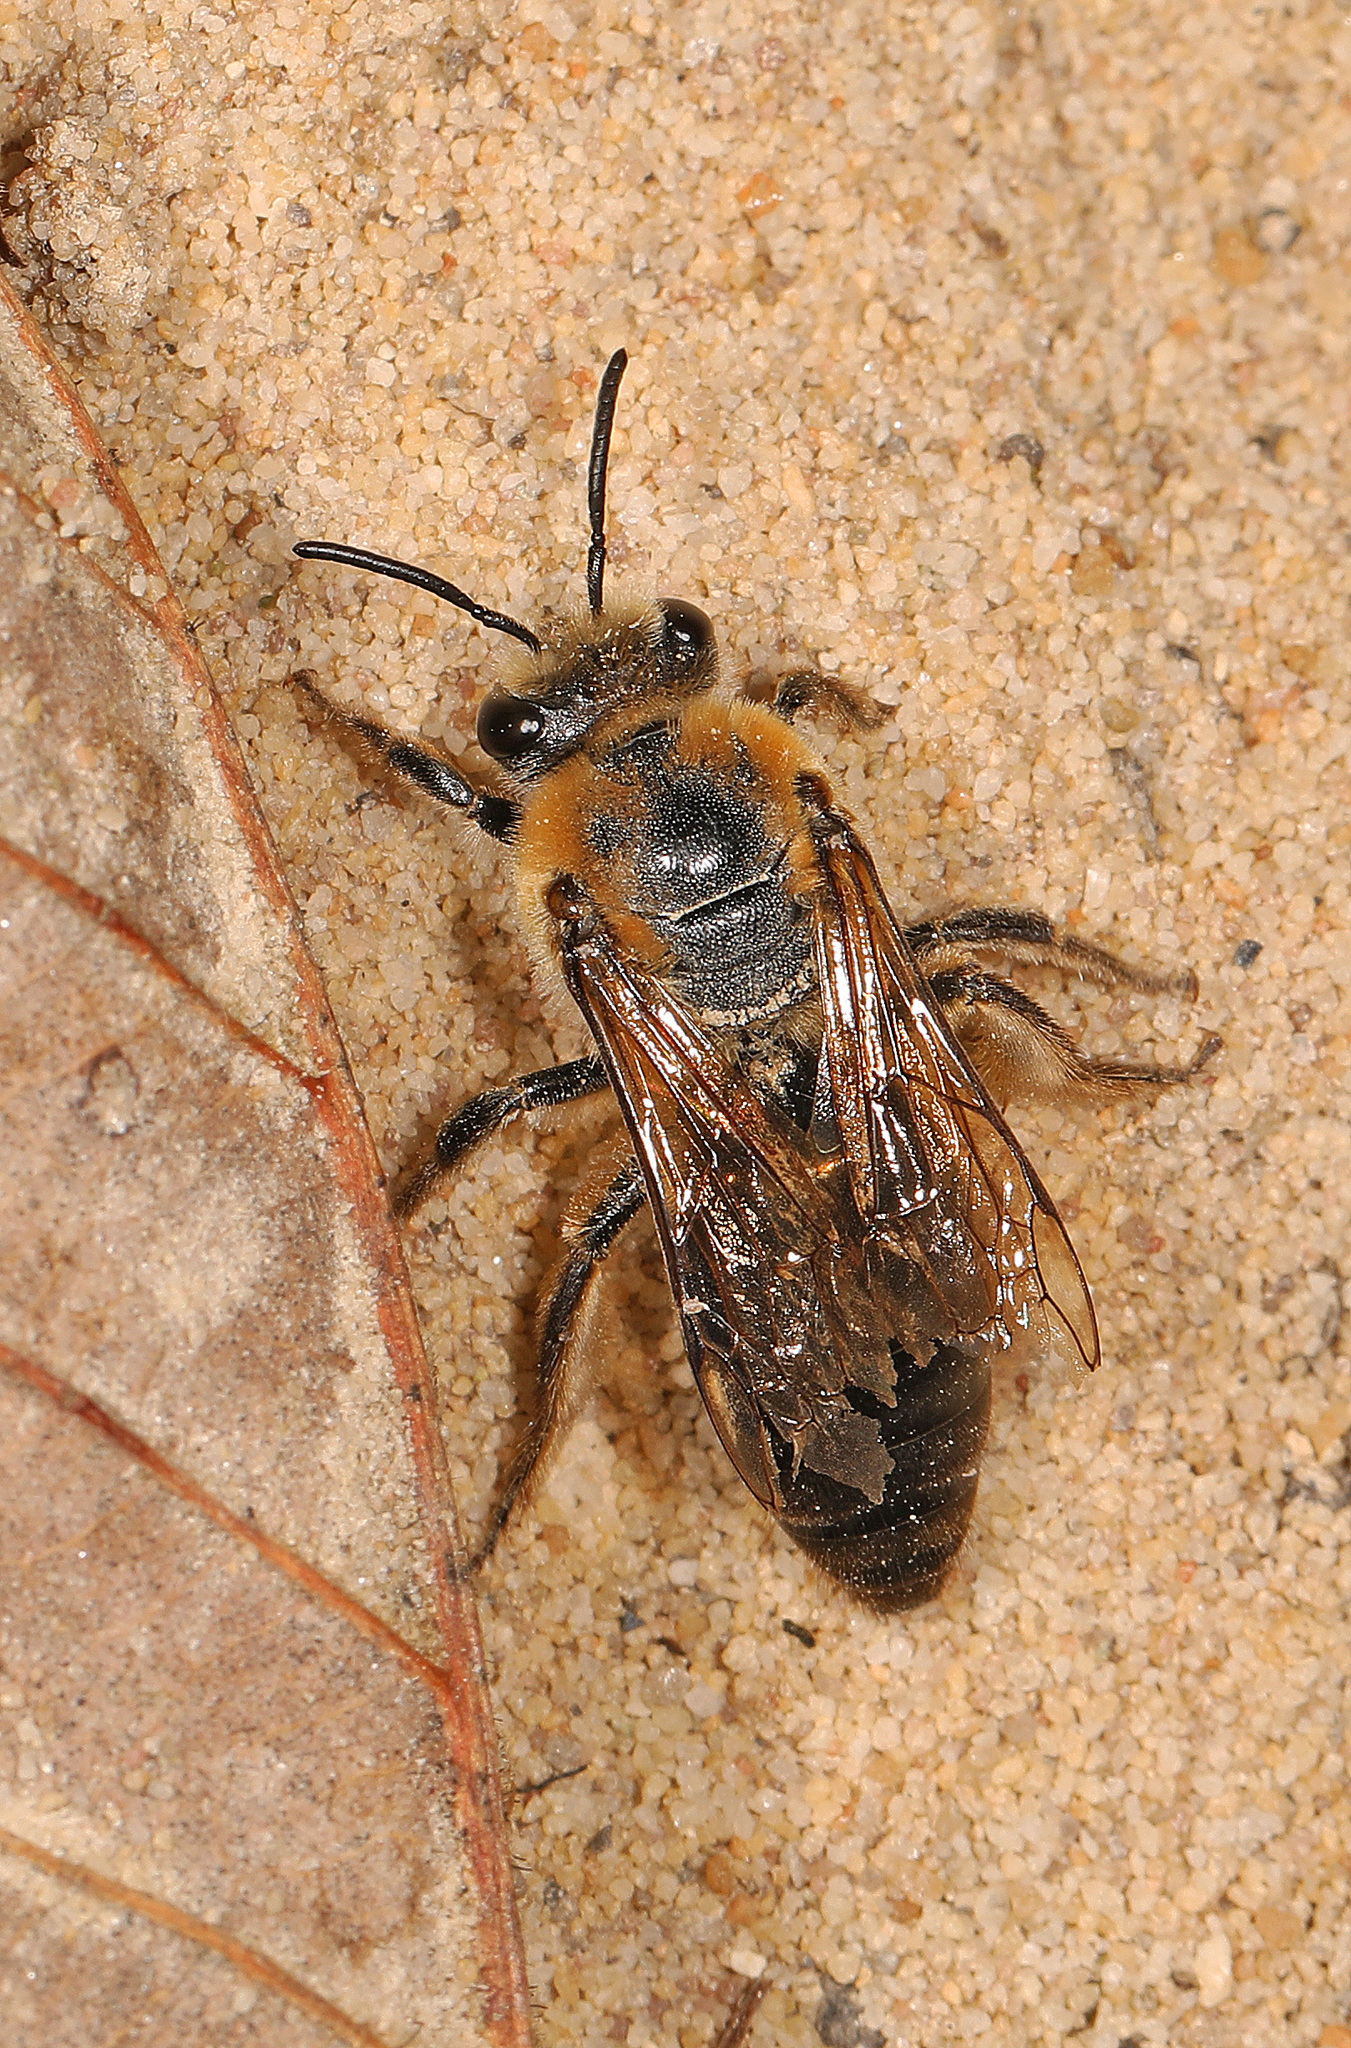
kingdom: Animalia
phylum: Arthropoda
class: Insecta
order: Hymenoptera
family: Colletidae
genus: Colletes
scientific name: Colletes thoracicus
